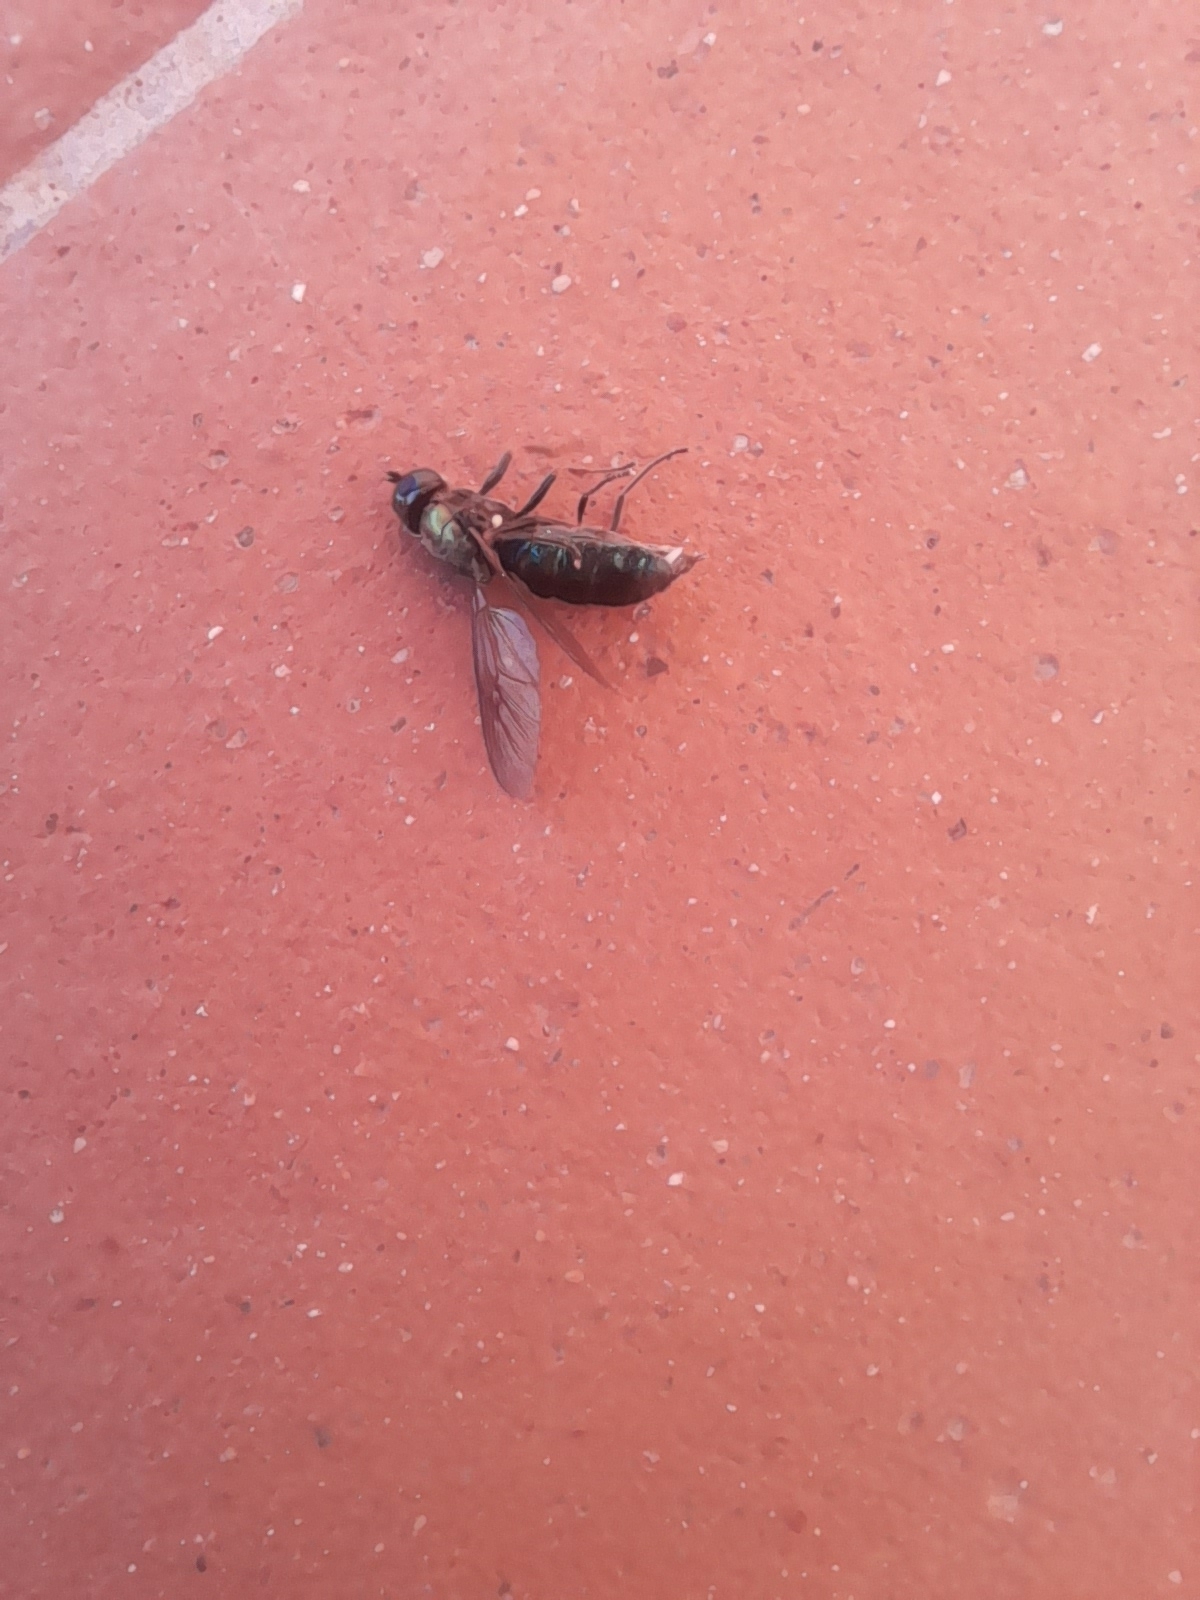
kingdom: Animalia
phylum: Arthropoda
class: Insecta
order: Diptera
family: Stratiomyidae
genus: Chloromyia
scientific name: Chloromyia formosa
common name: Soldier fly
